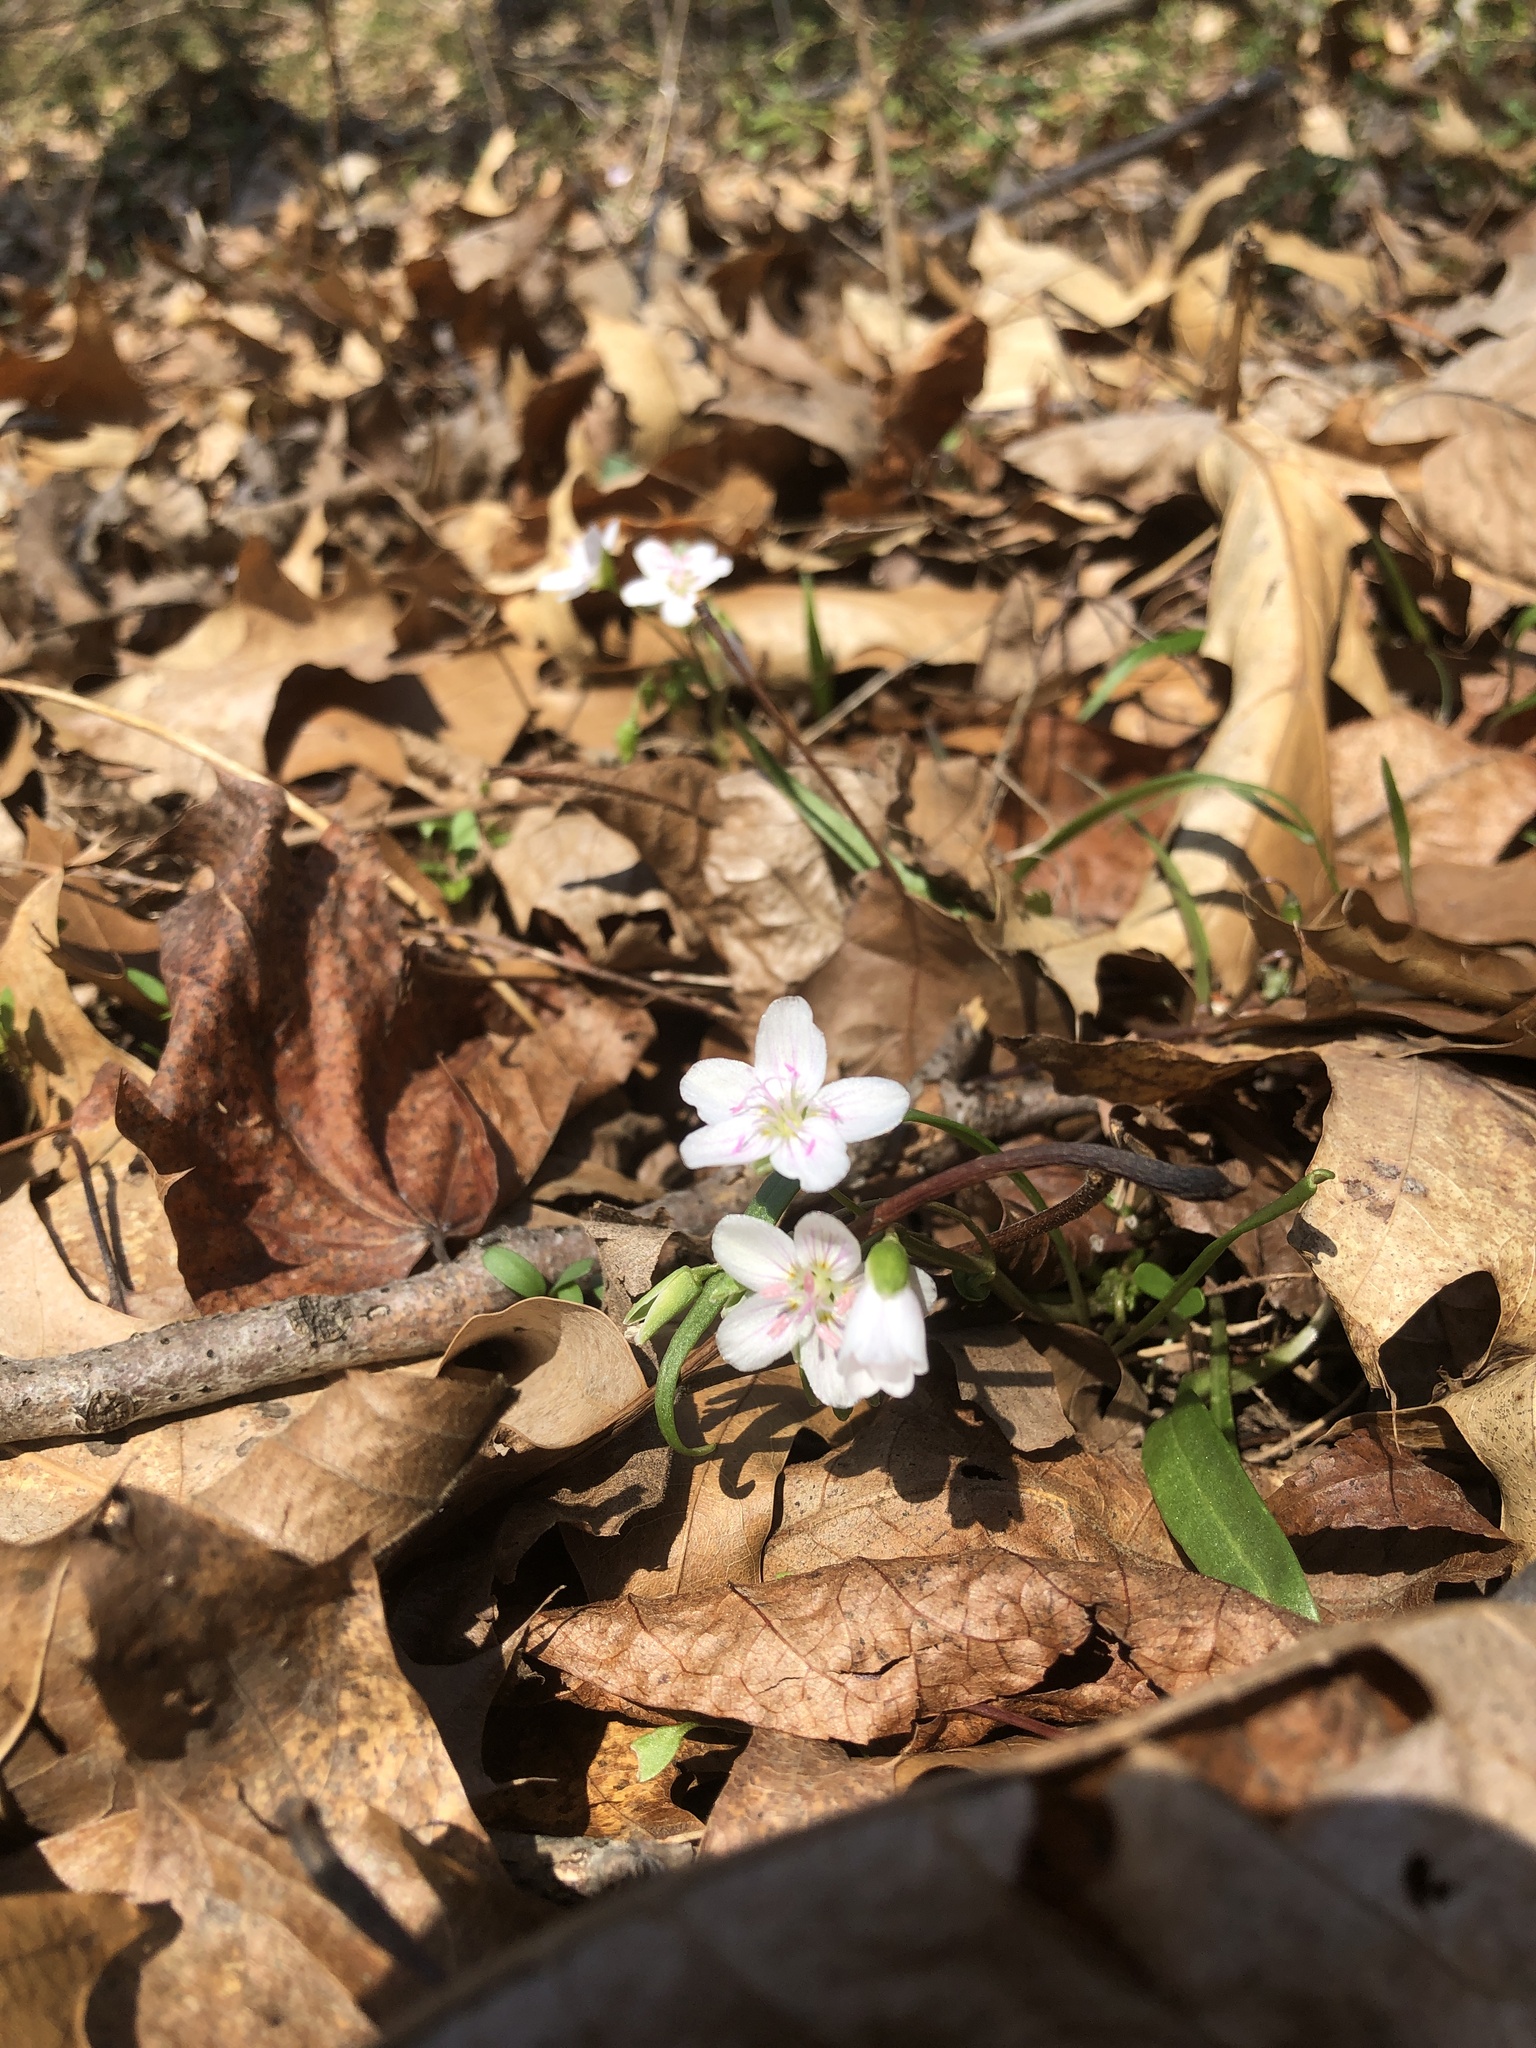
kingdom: Plantae
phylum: Tracheophyta
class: Magnoliopsida
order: Caryophyllales
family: Montiaceae
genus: Claytonia
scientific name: Claytonia virginica
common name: Virginia springbeauty
